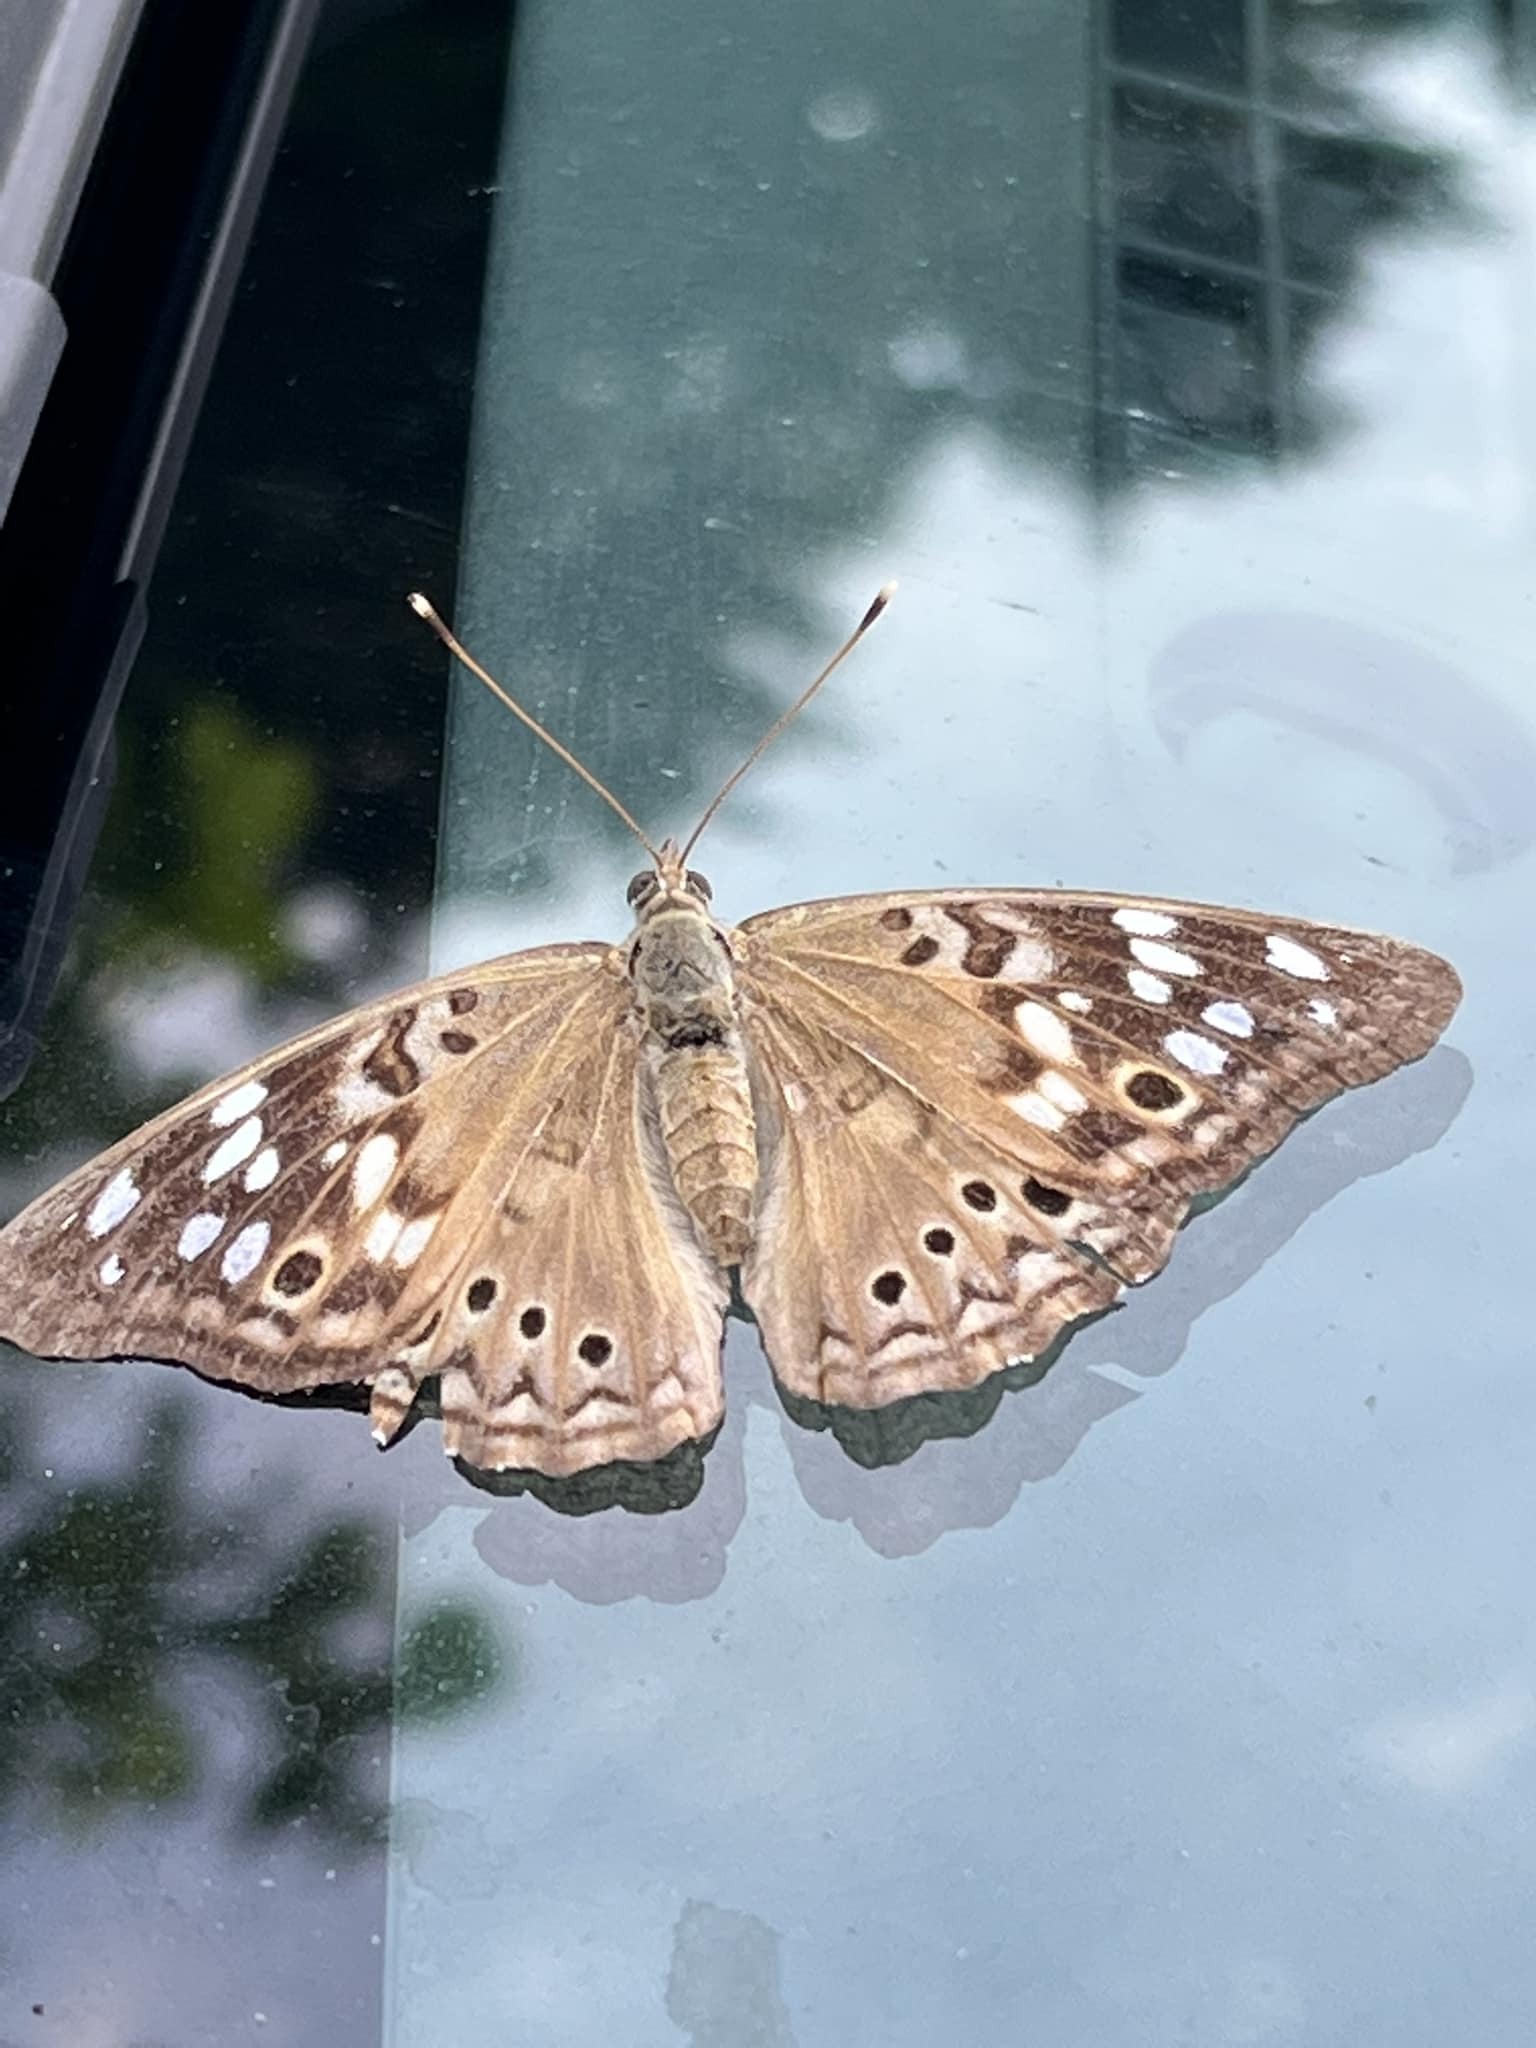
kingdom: Animalia
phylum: Arthropoda
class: Insecta
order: Lepidoptera
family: Nymphalidae
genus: Asterocampa
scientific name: Asterocampa celtis
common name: Hackberry emperor
